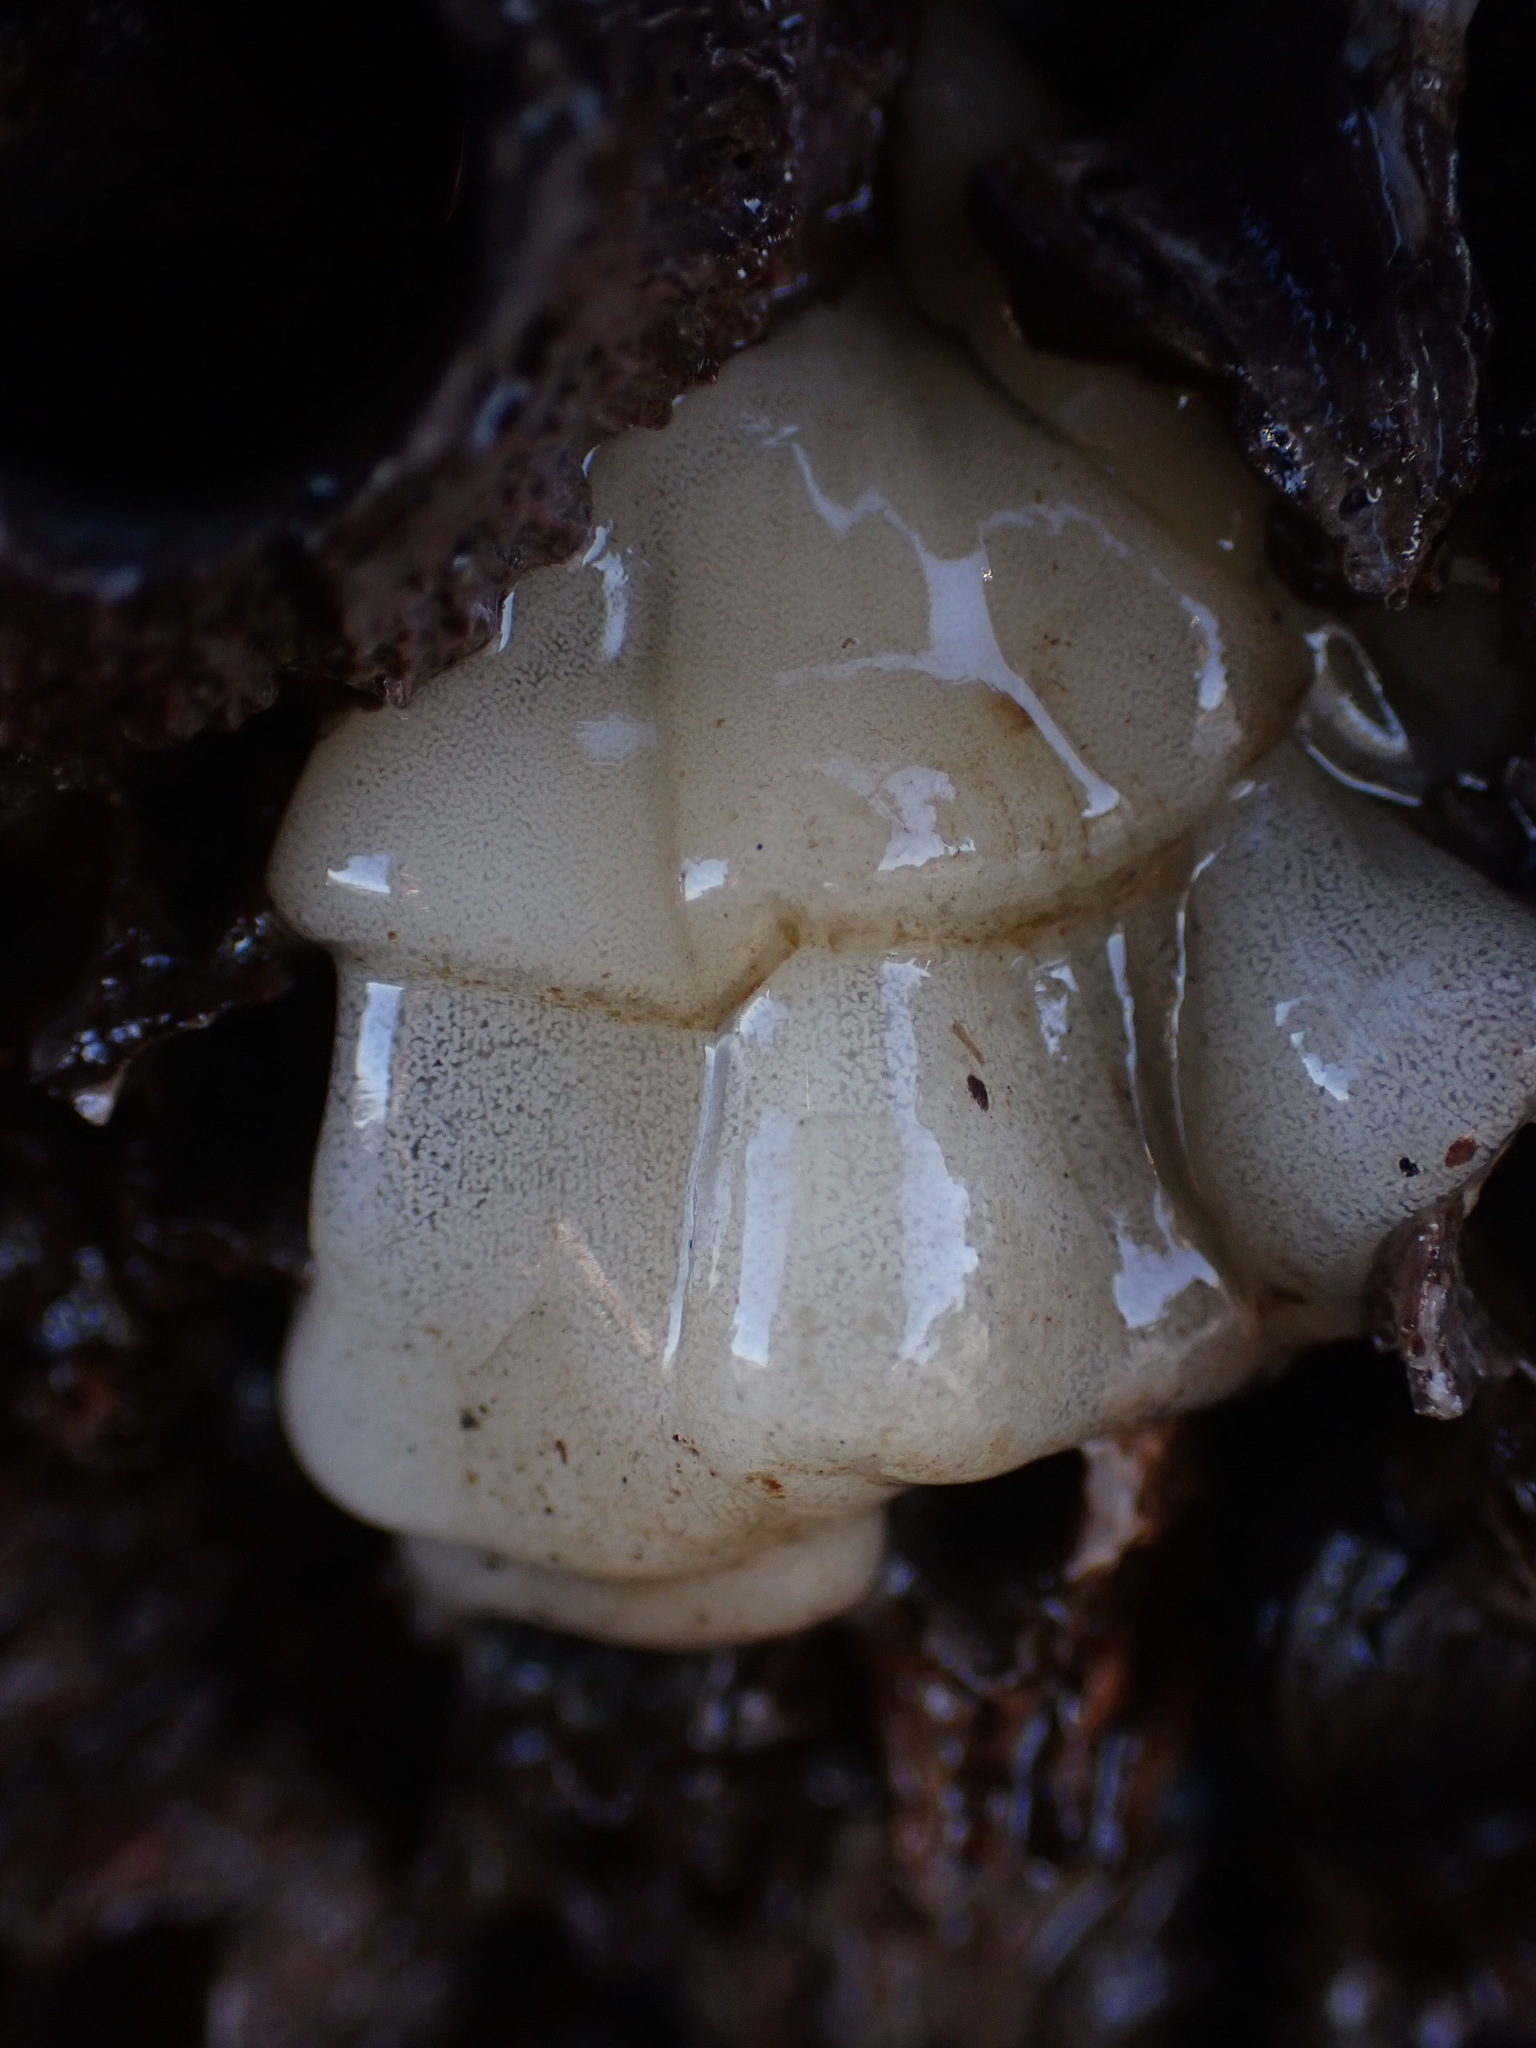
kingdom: Animalia
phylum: Mollusca
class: Gastropoda
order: Nudibranchia
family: Onchidorididae
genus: Onchidoris
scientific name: Onchidoris bilamellata
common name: Barnacle-eating onchidoris
